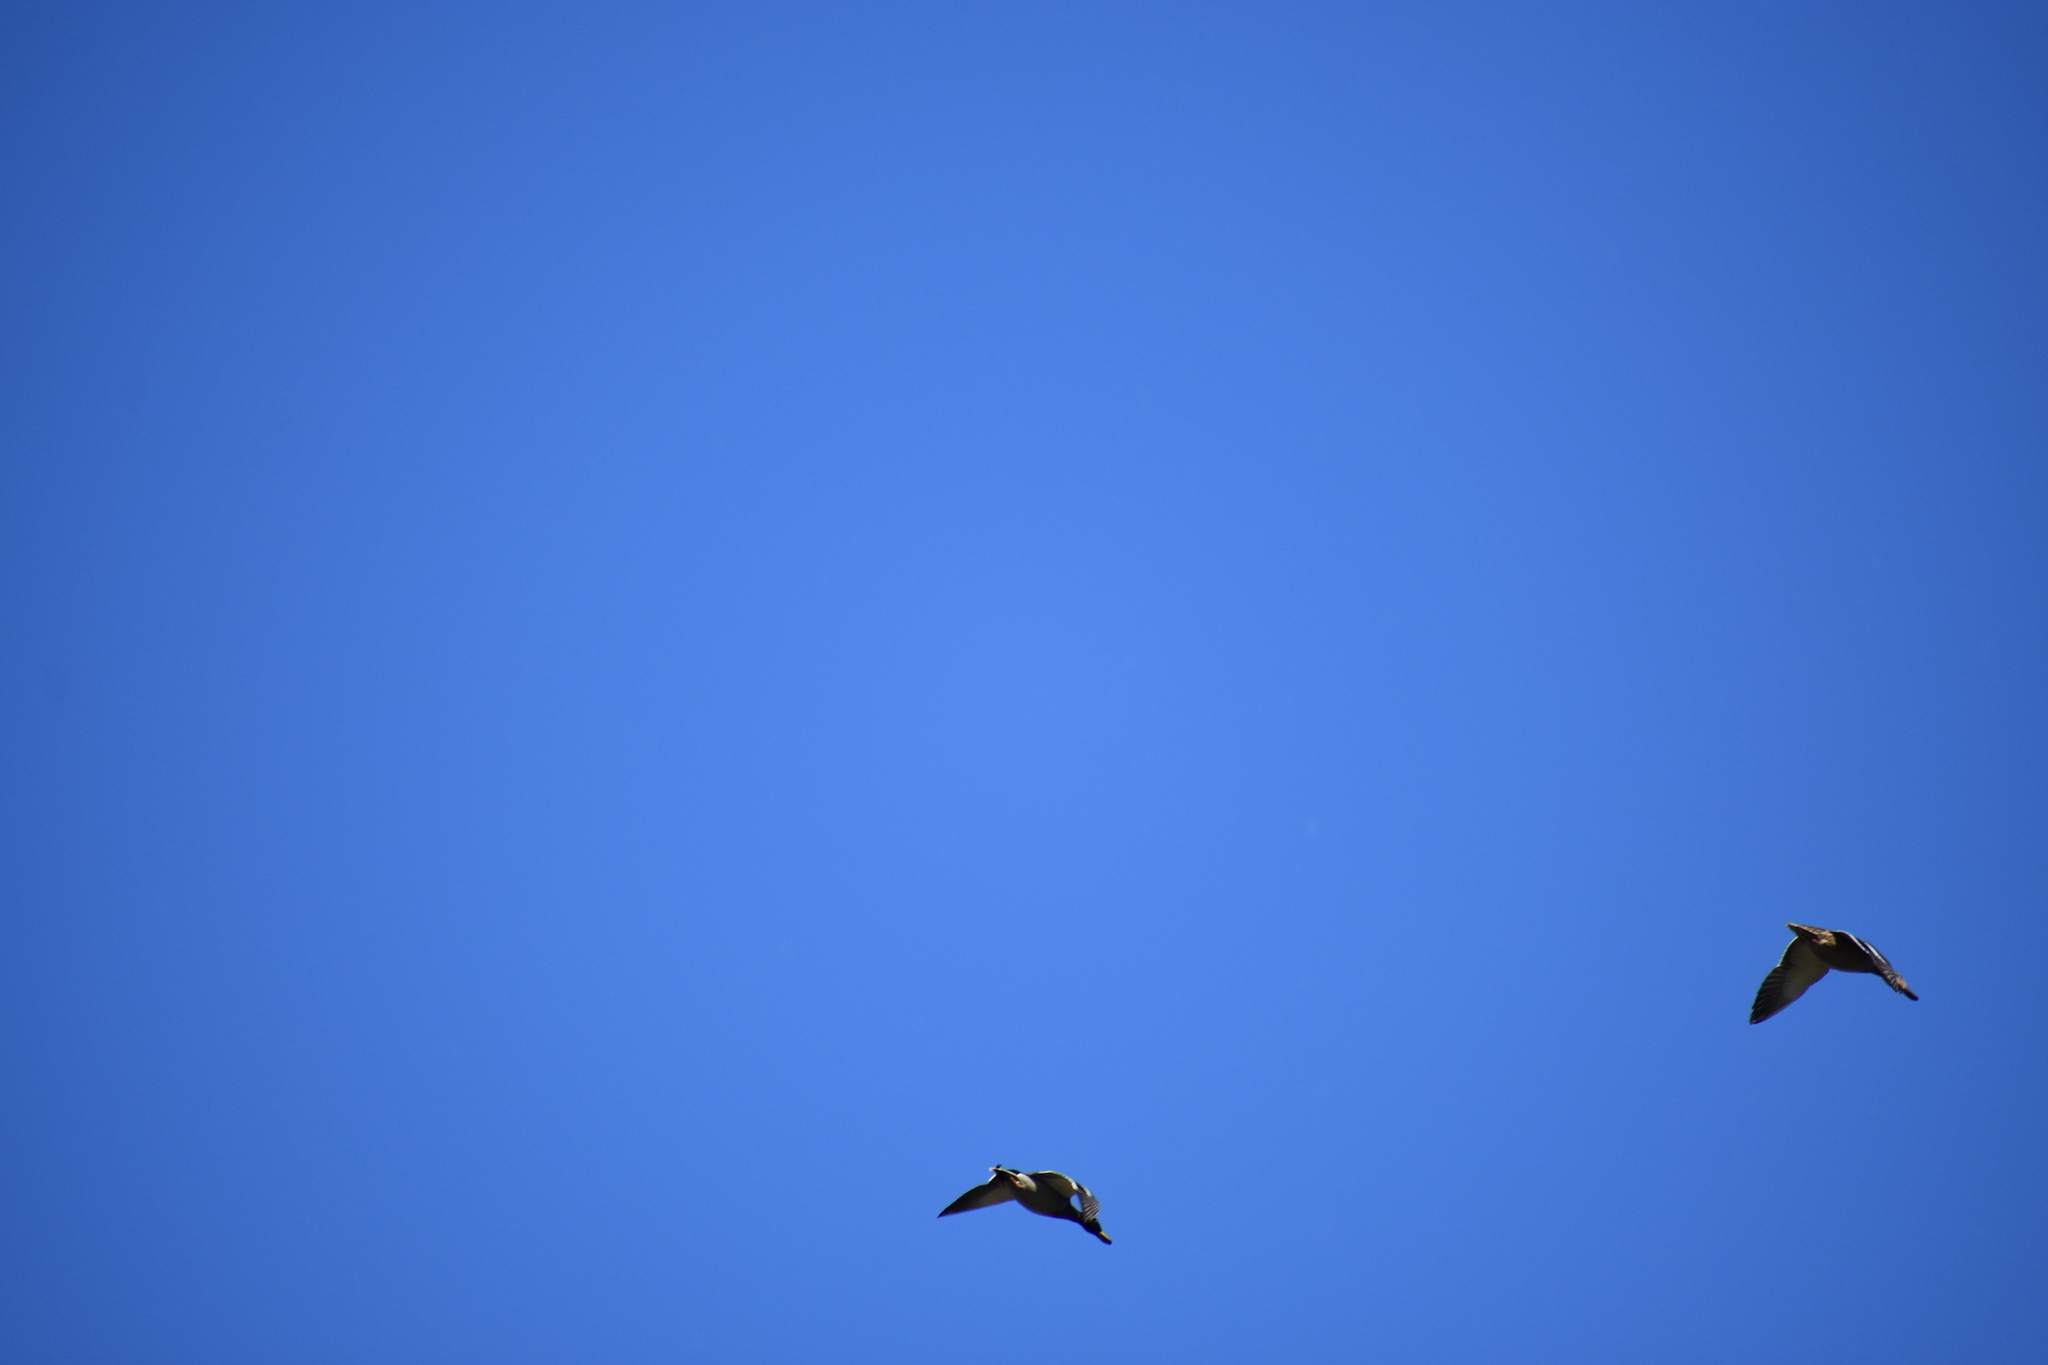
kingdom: Animalia
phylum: Chordata
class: Aves
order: Anseriformes
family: Anatidae
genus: Anas
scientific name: Anas platyrhynchos
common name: Mallard
